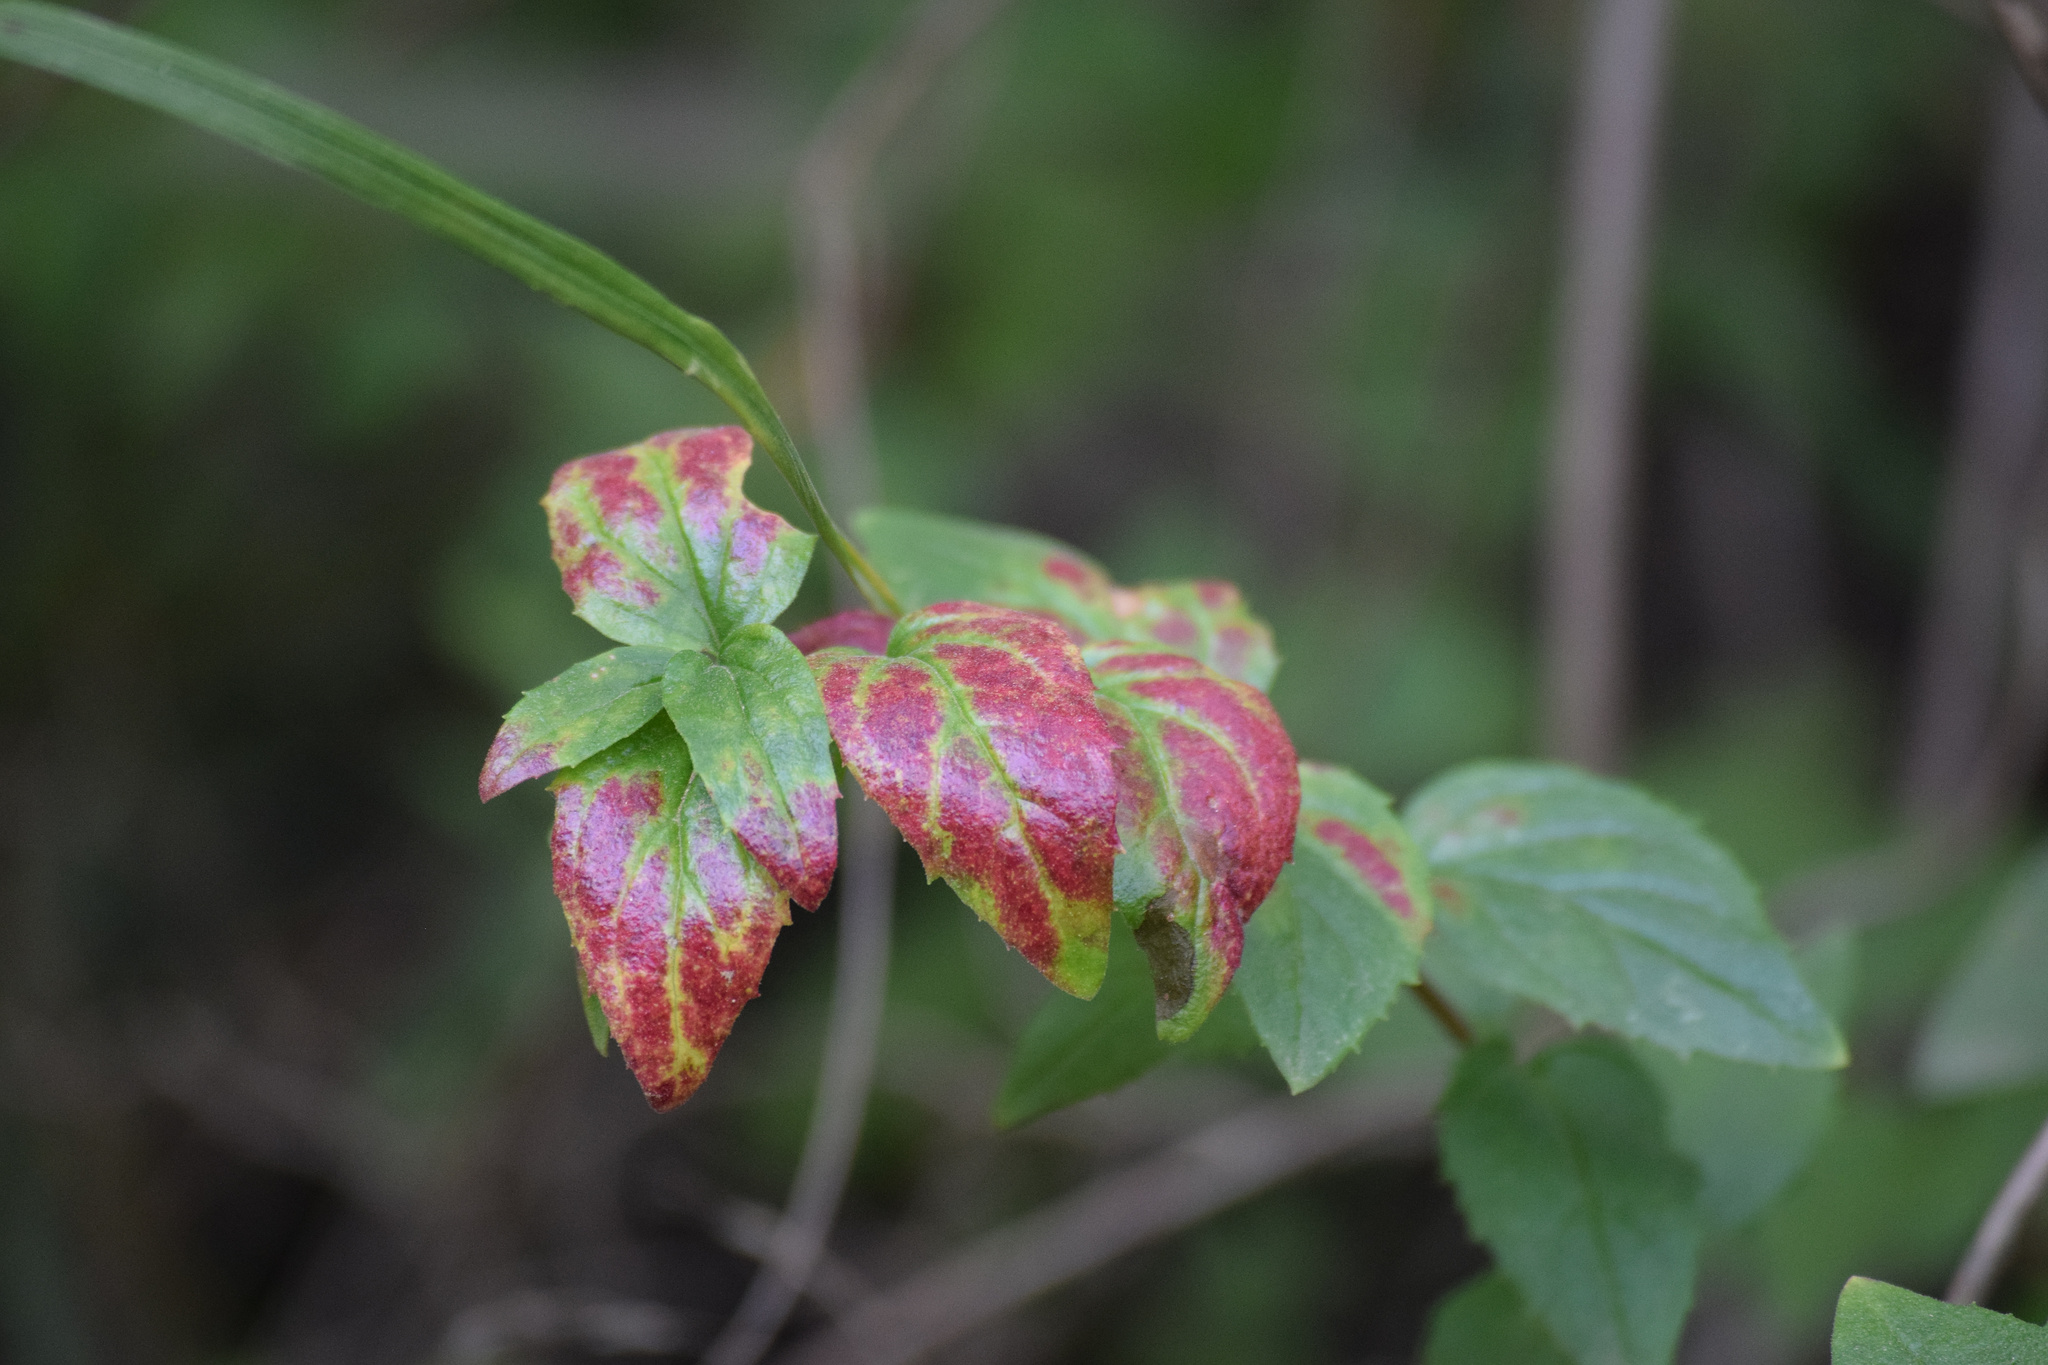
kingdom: Plantae
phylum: Tracheophyta
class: Magnoliopsida
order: Lamiales
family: Plantaginaceae
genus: Keckiella
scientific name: Keckiella cordifolia
